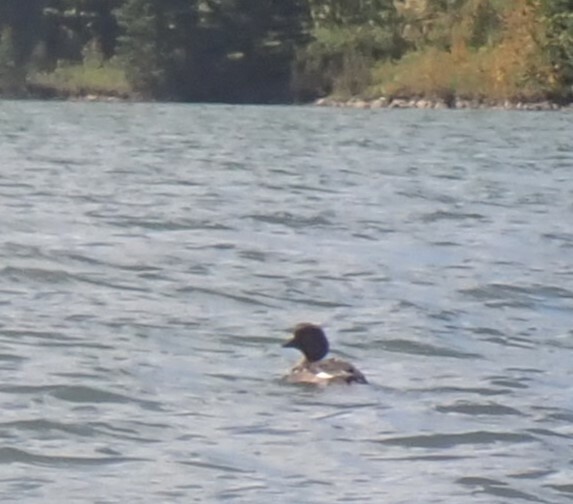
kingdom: Animalia
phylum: Chordata
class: Aves
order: Anseriformes
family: Anatidae
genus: Bucephala
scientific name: Bucephala clangula
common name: Common goldeneye
